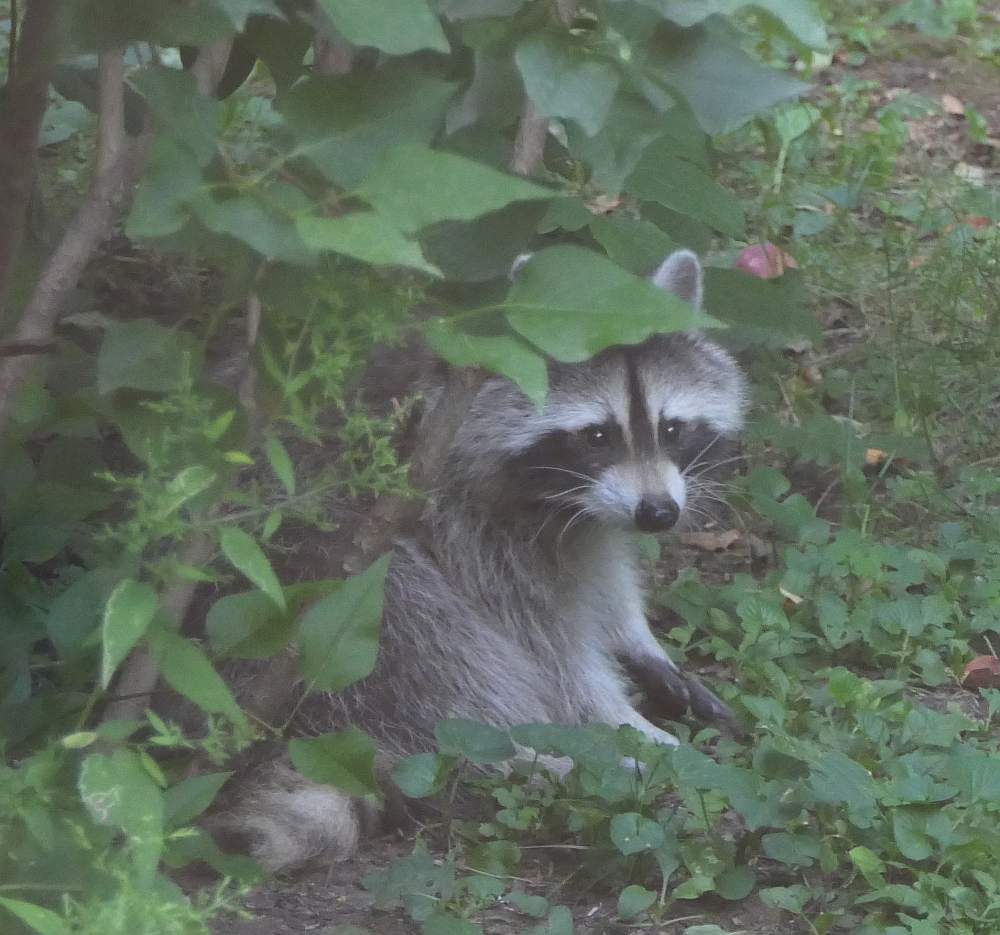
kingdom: Animalia
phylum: Chordata
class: Mammalia
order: Carnivora
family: Procyonidae
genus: Procyon
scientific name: Procyon lotor
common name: Raccoon
